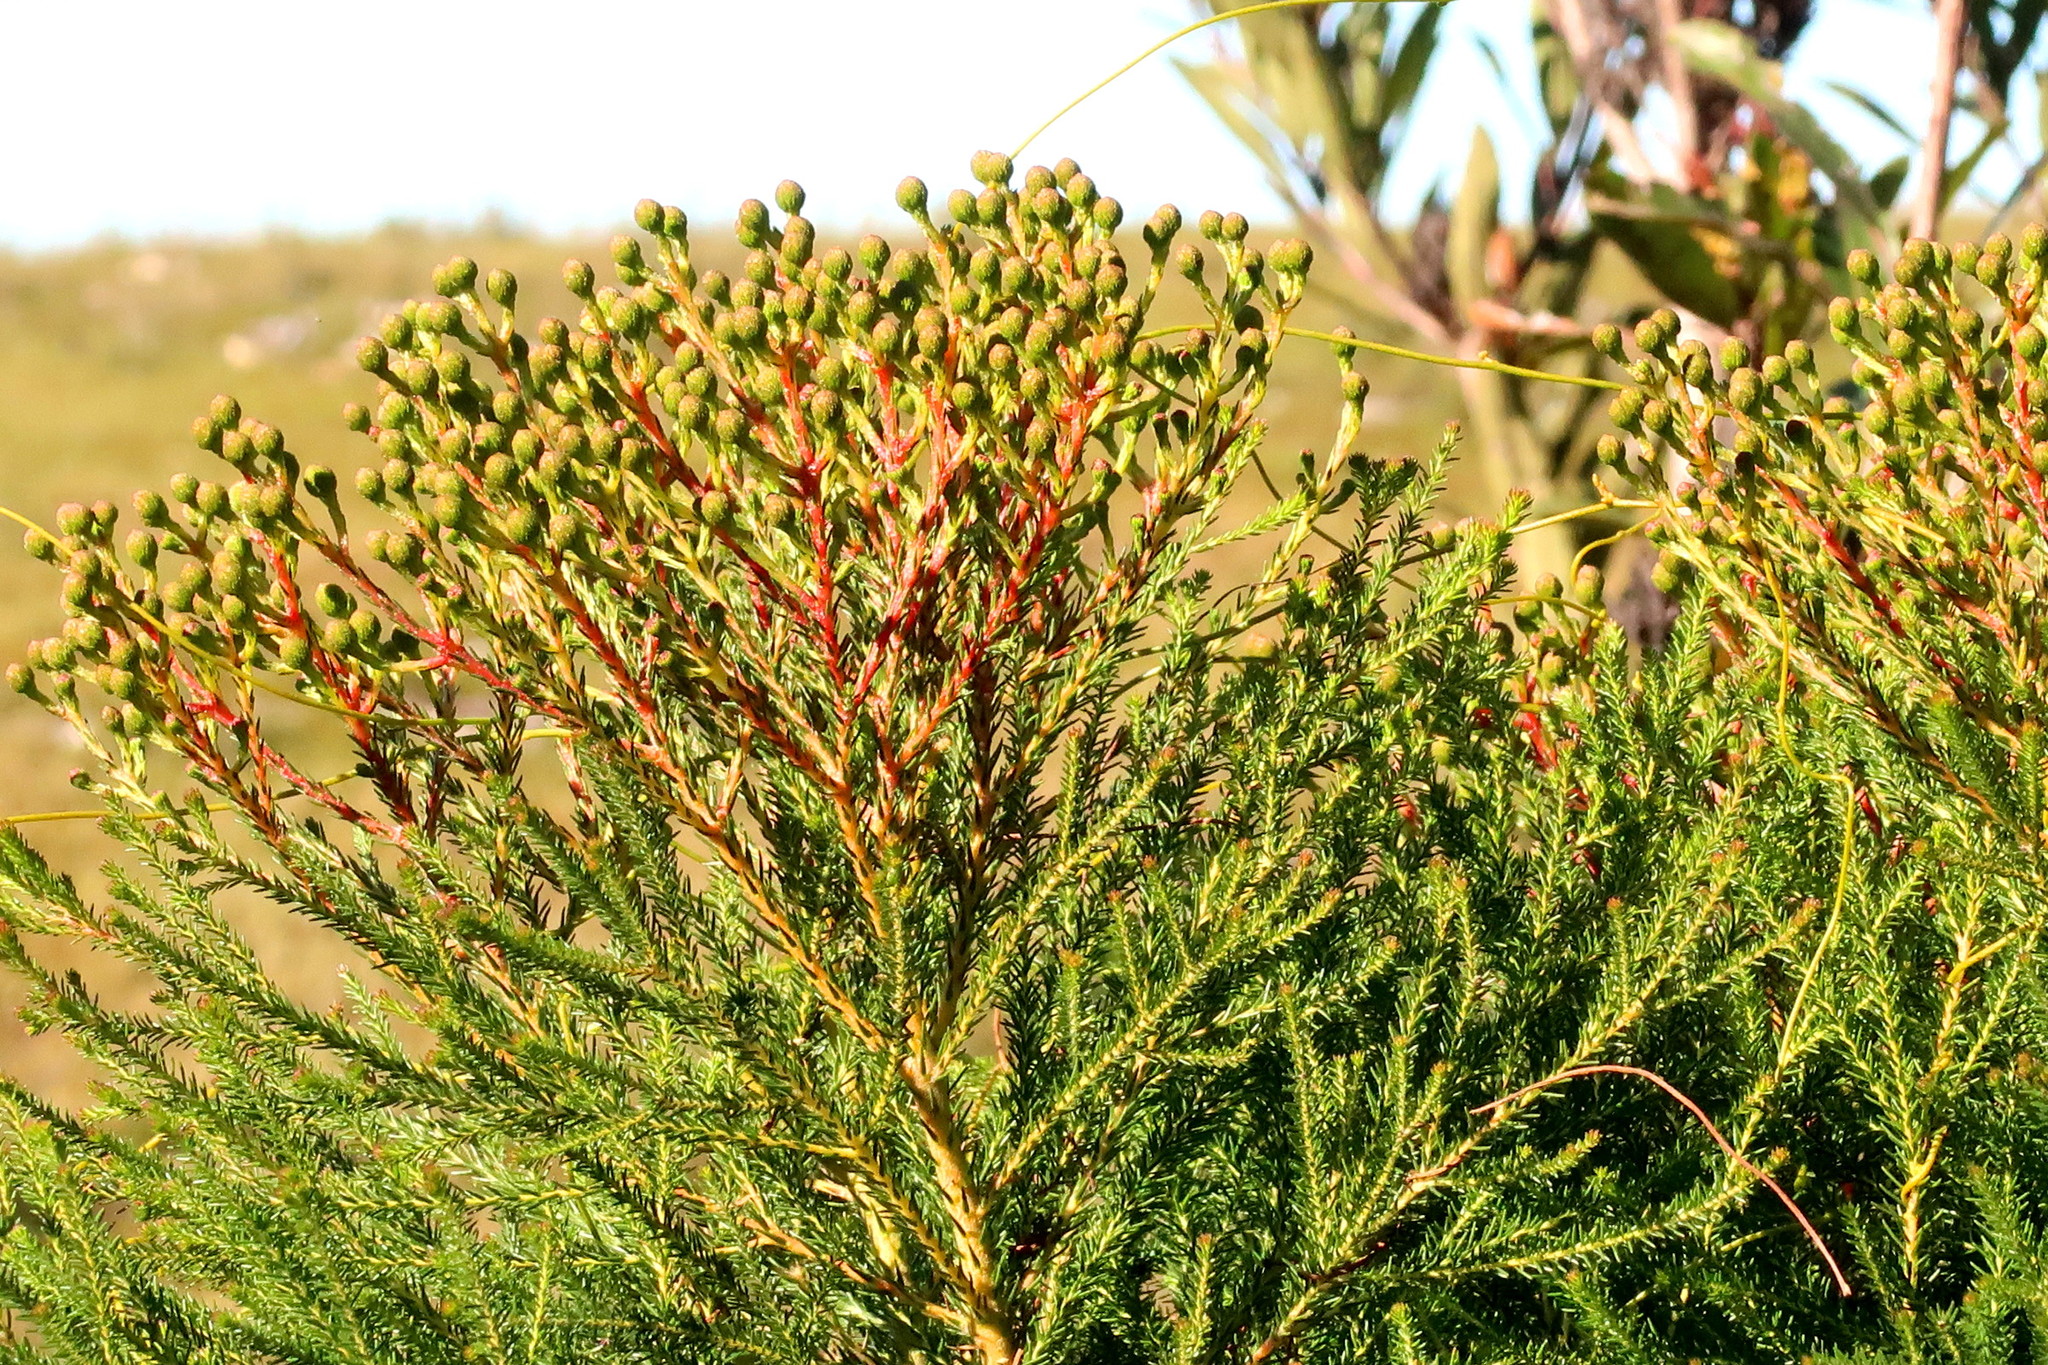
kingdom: Plantae
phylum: Tracheophyta
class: Magnoliopsida
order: Bruniales
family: Bruniaceae
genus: Berzelia
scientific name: Berzelia intermedia
